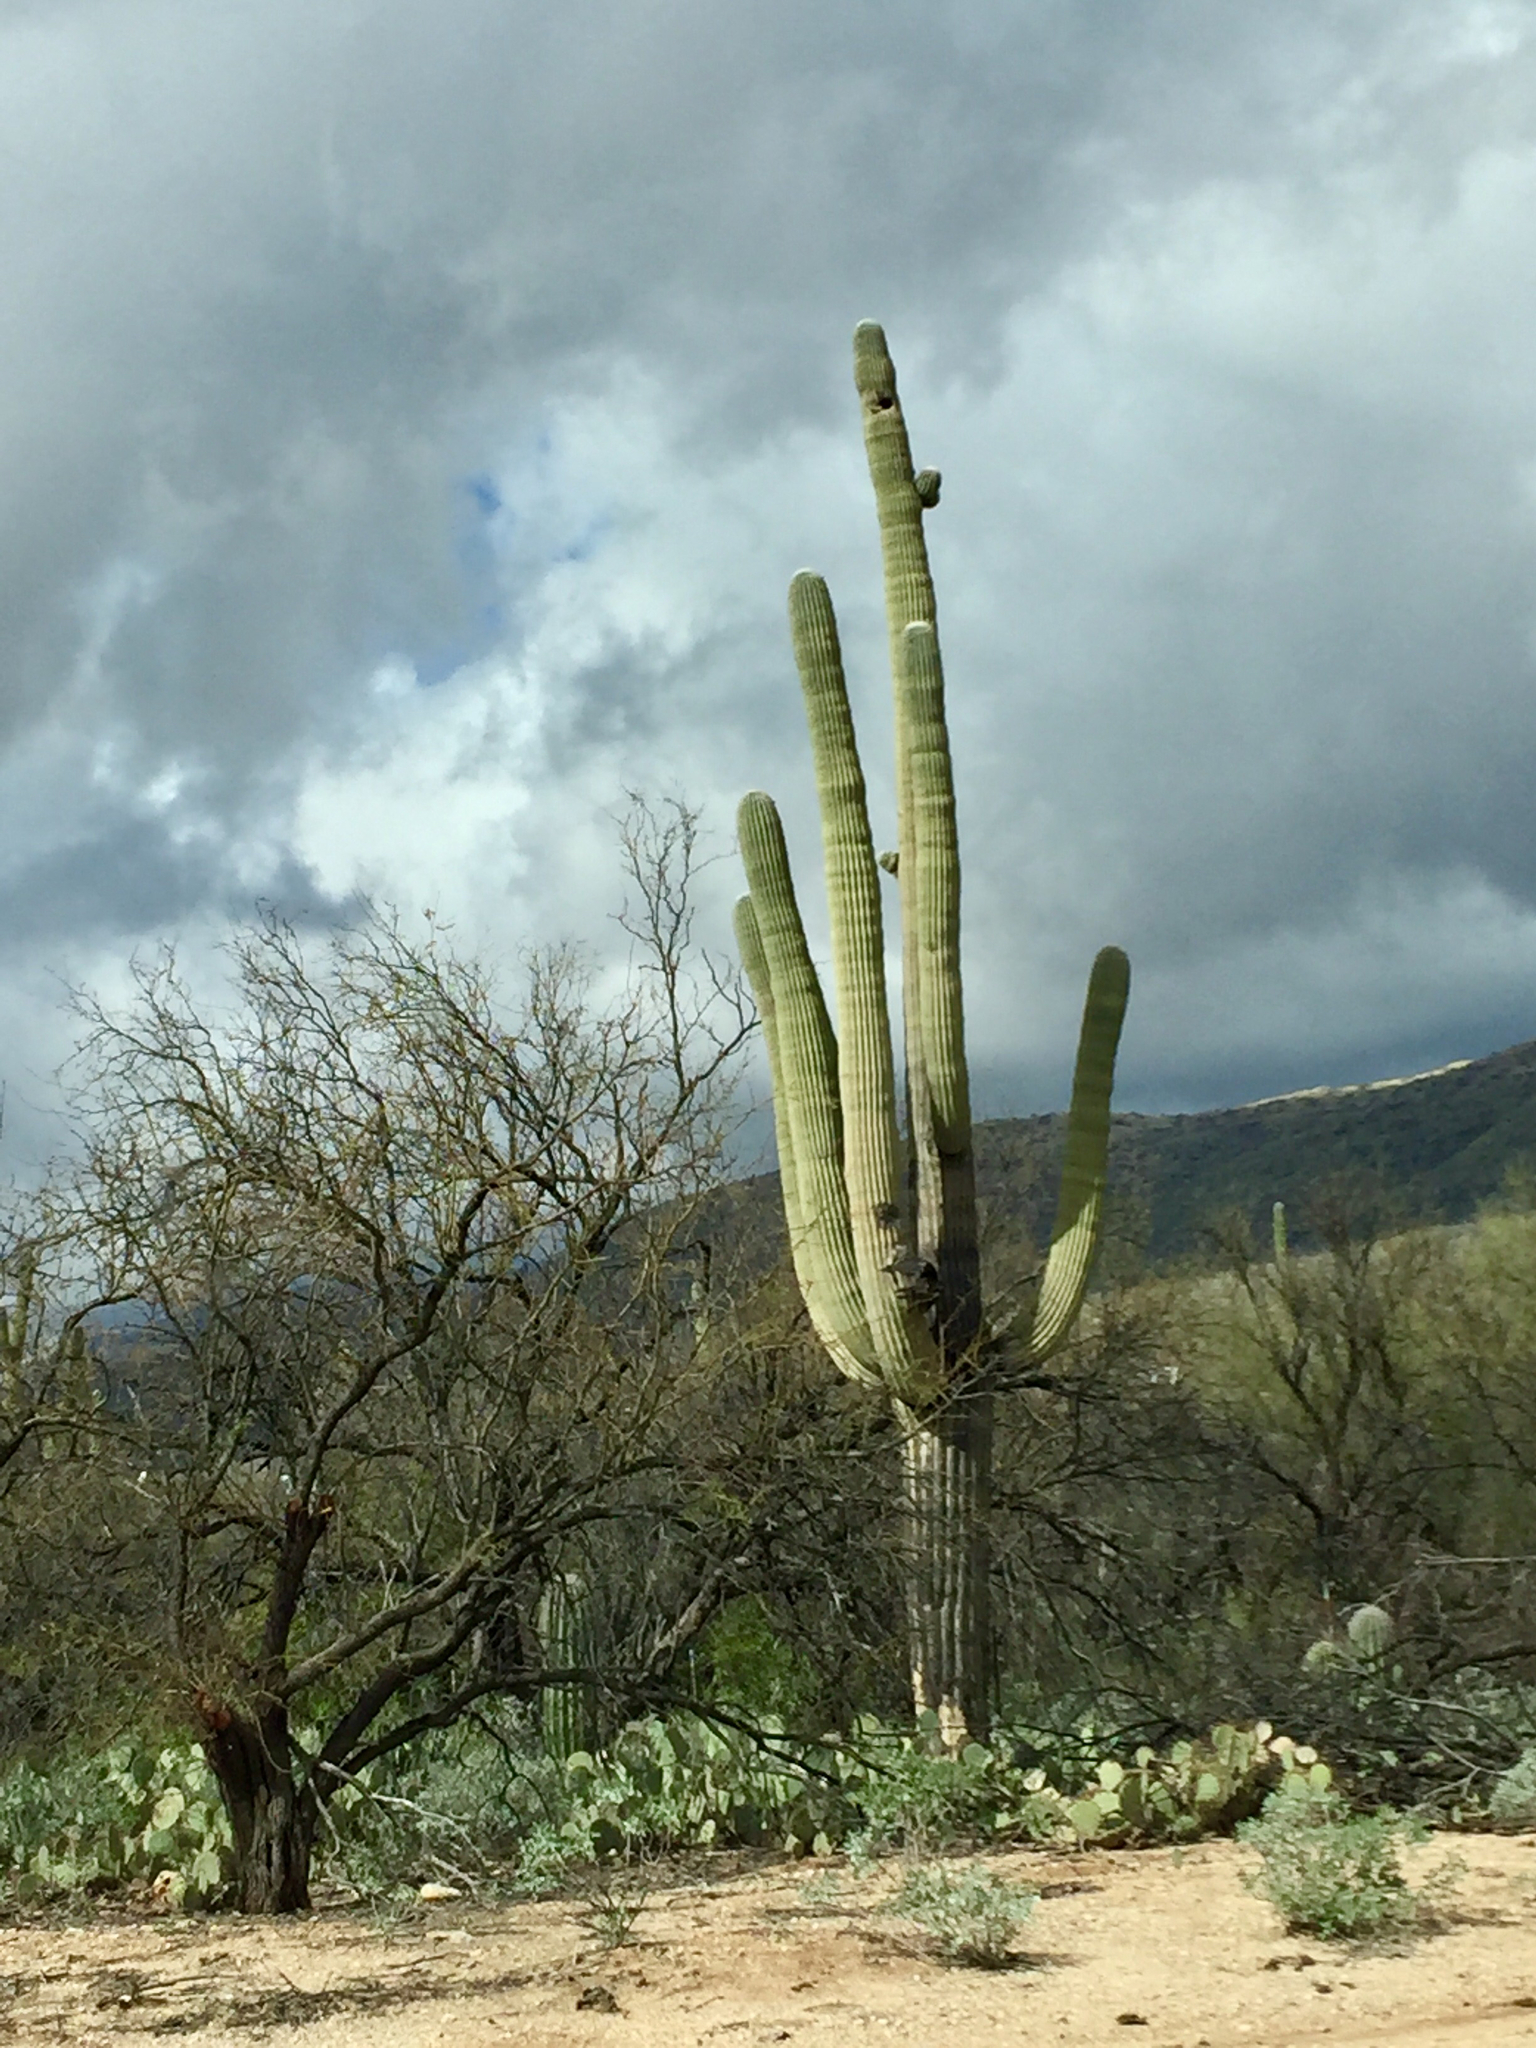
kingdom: Plantae
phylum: Tracheophyta
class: Magnoliopsida
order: Caryophyllales
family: Cactaceae
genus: Carnegiea
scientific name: Carnegiea gigantea
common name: Saguaro
